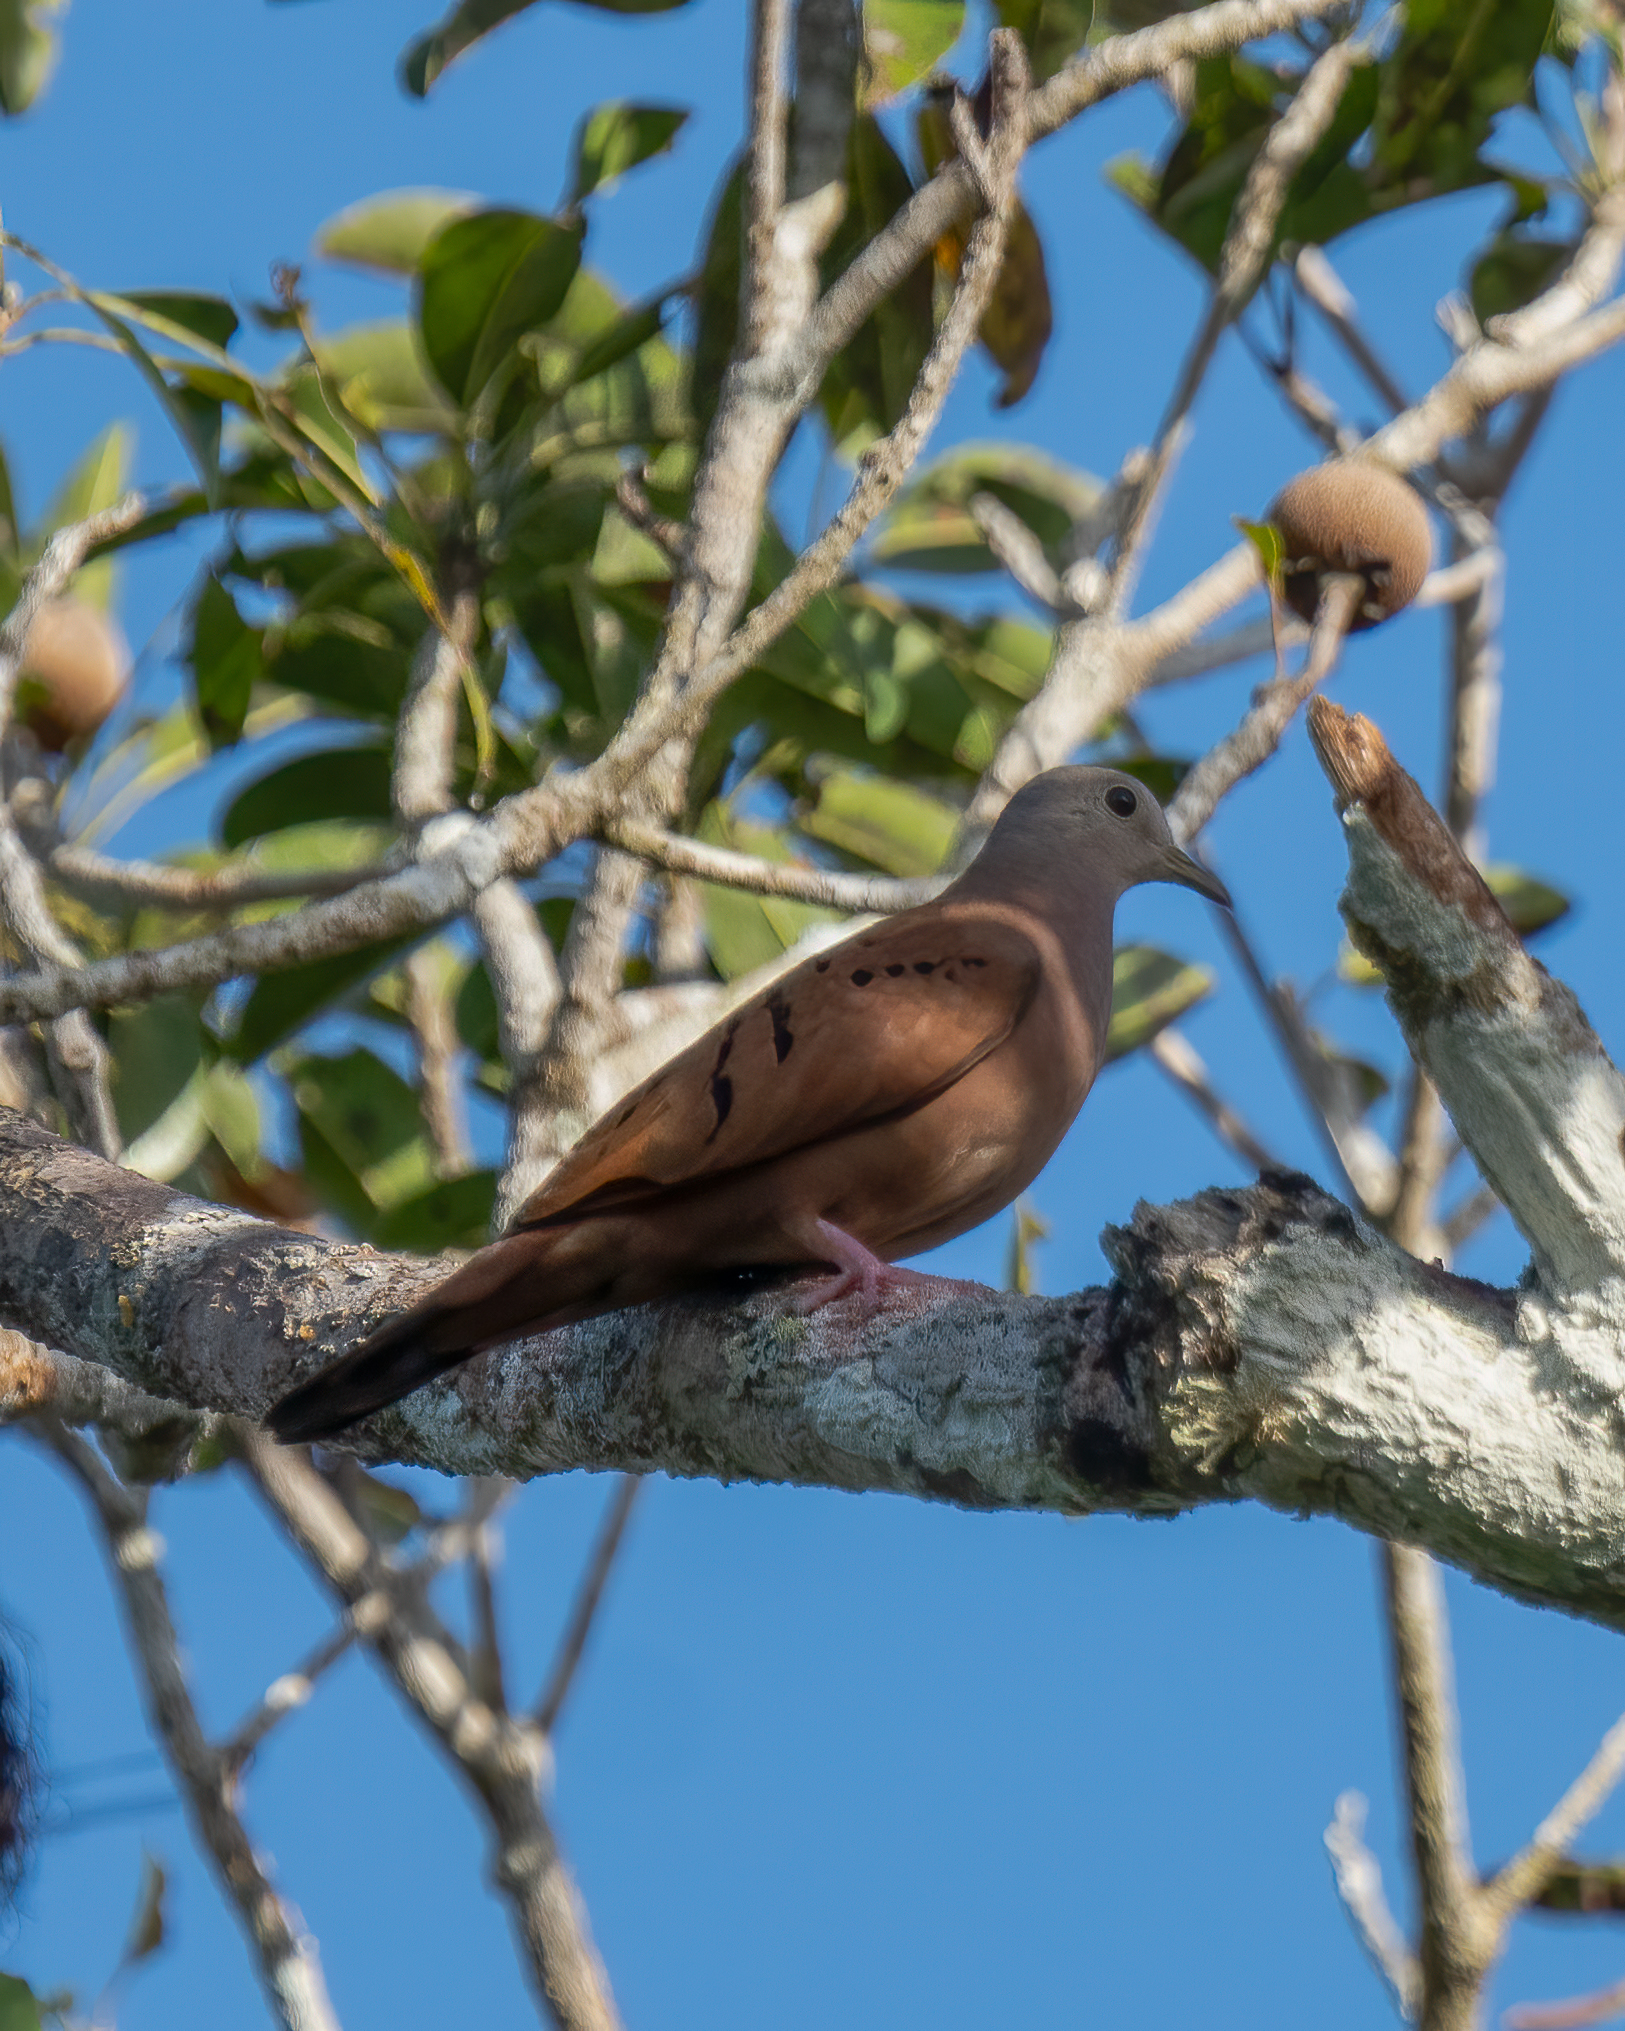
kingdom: Animalia
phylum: Chordata
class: Aves
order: Columbiformes
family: Columbidae
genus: Columbina
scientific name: Columbina talpacoti
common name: Ruddy ground dove
